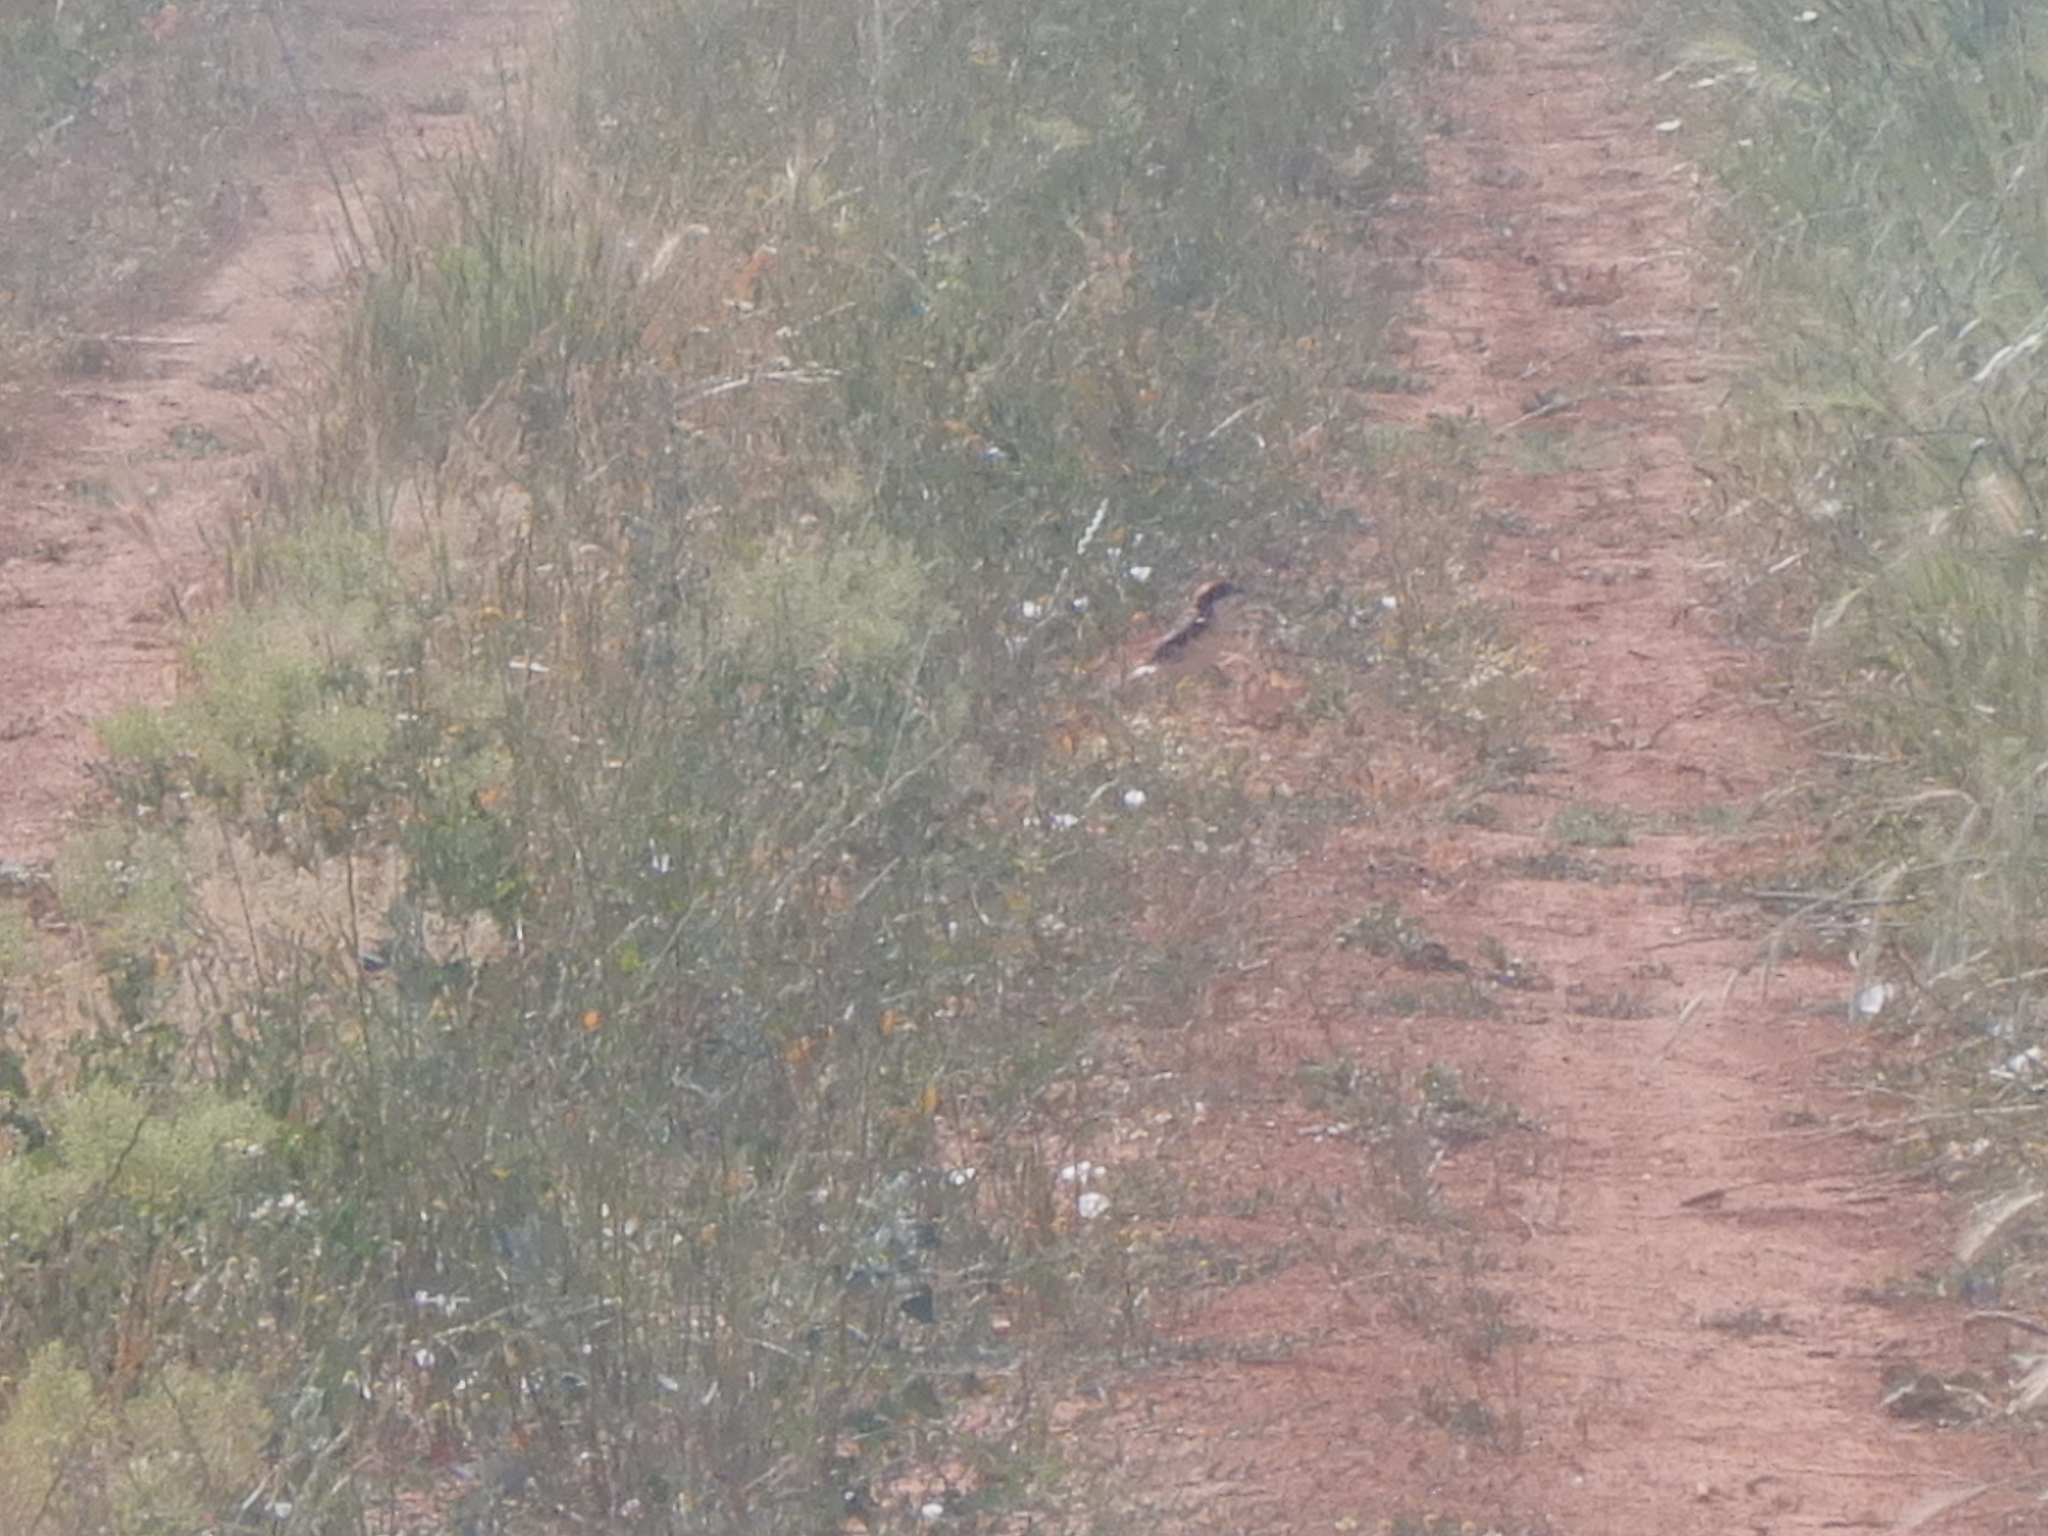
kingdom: Animalia
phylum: Chordata
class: Aves
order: Passeriformes
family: Laniidae
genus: Lanius
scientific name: Lanius senator
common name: Woodchat shrike
